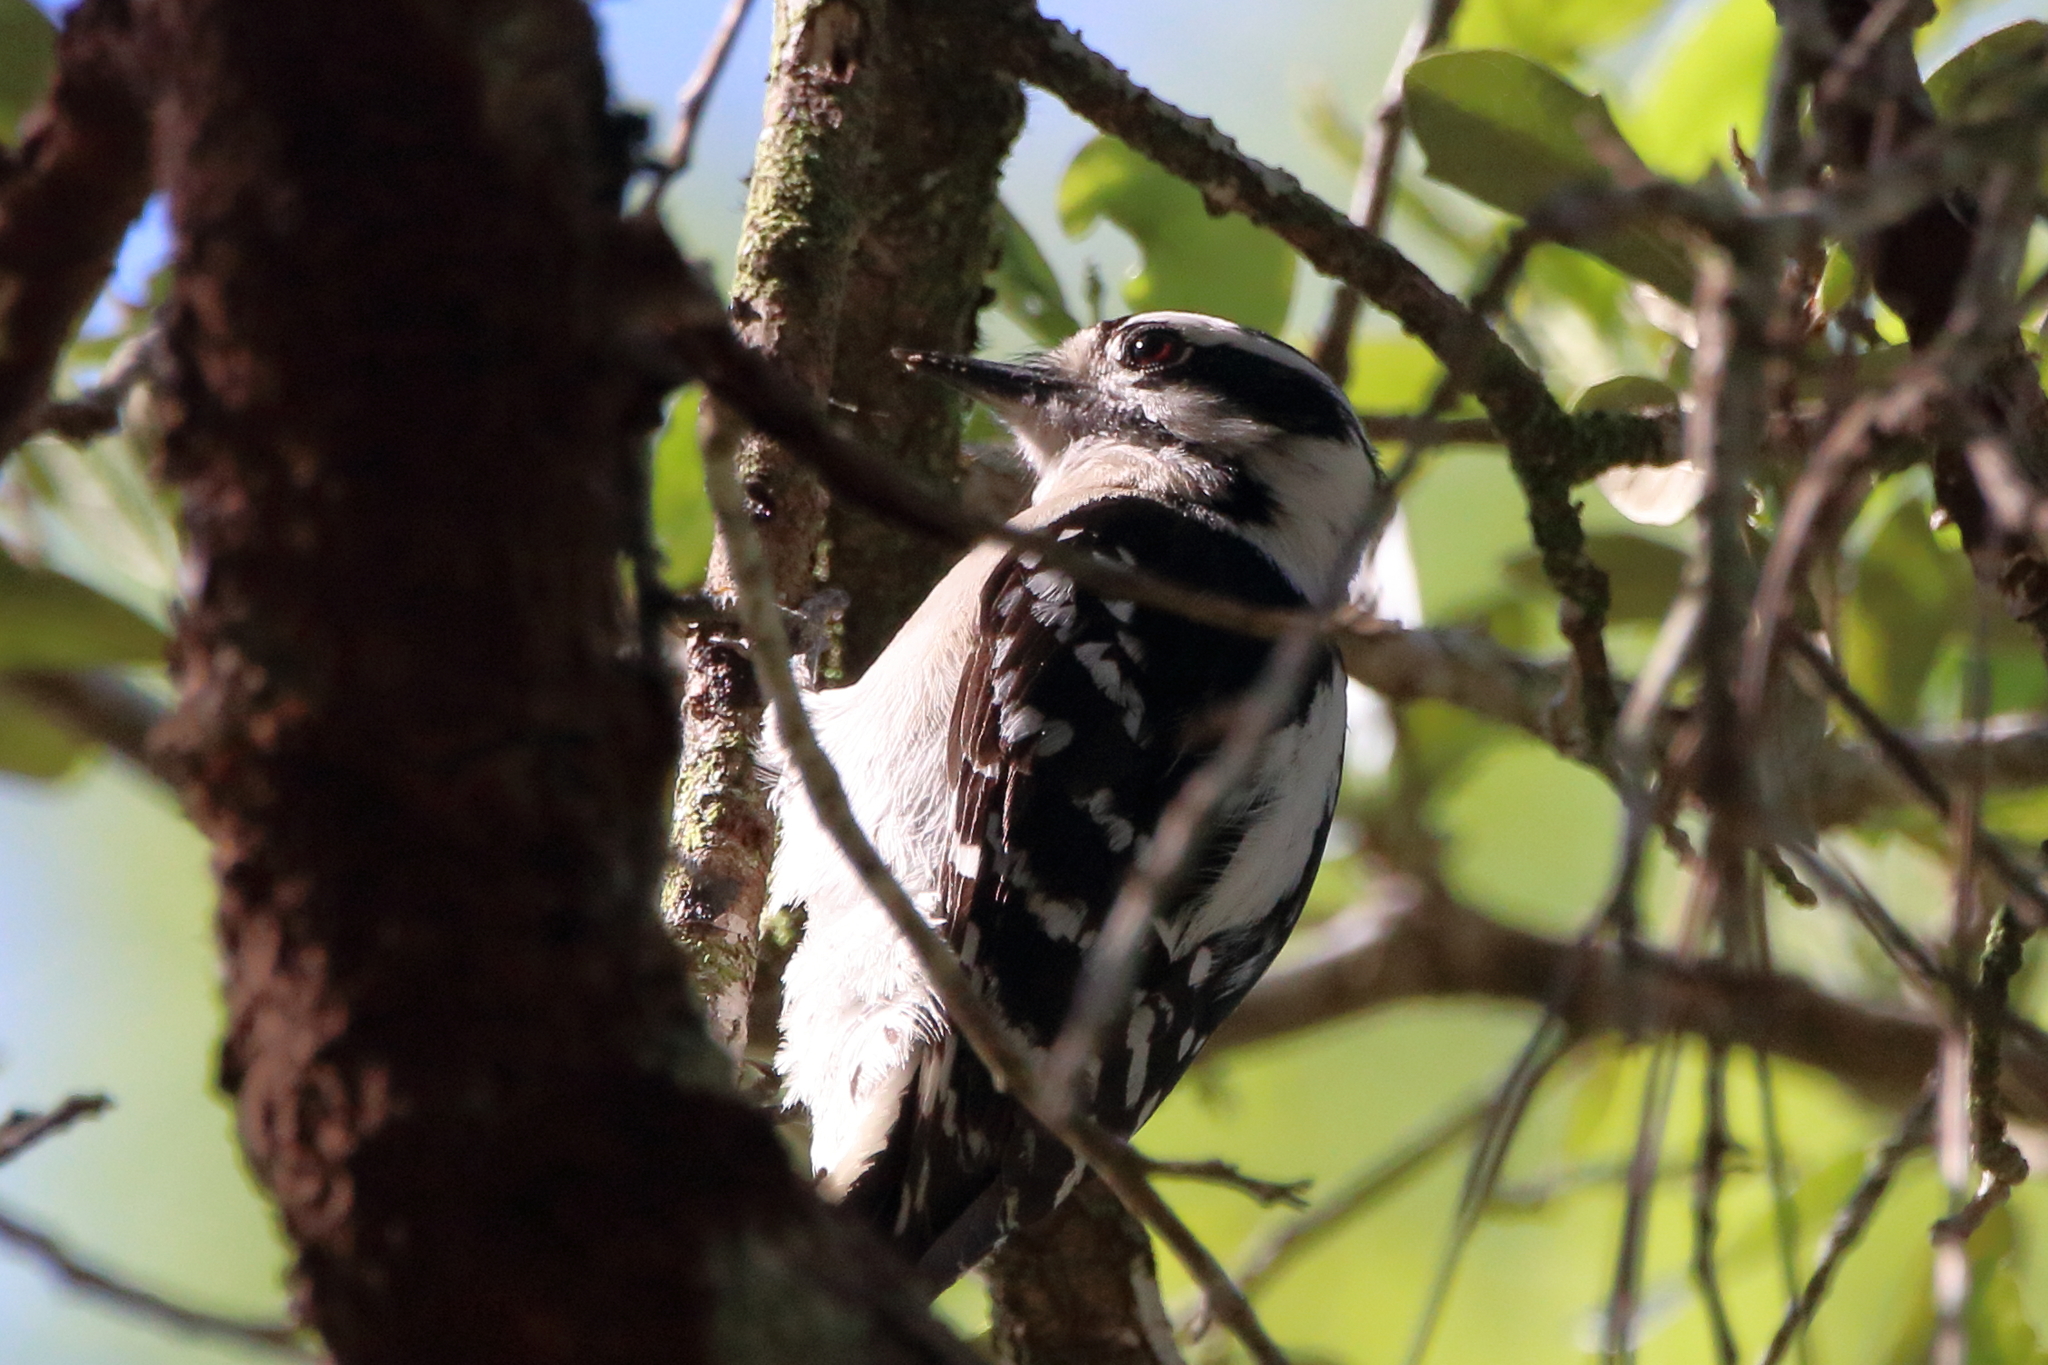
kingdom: Animalia
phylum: Chordata
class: Aves
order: Piciformes
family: Picidae
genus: Dryobates
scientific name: Dryobates pubescens
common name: Downy woodpecker
